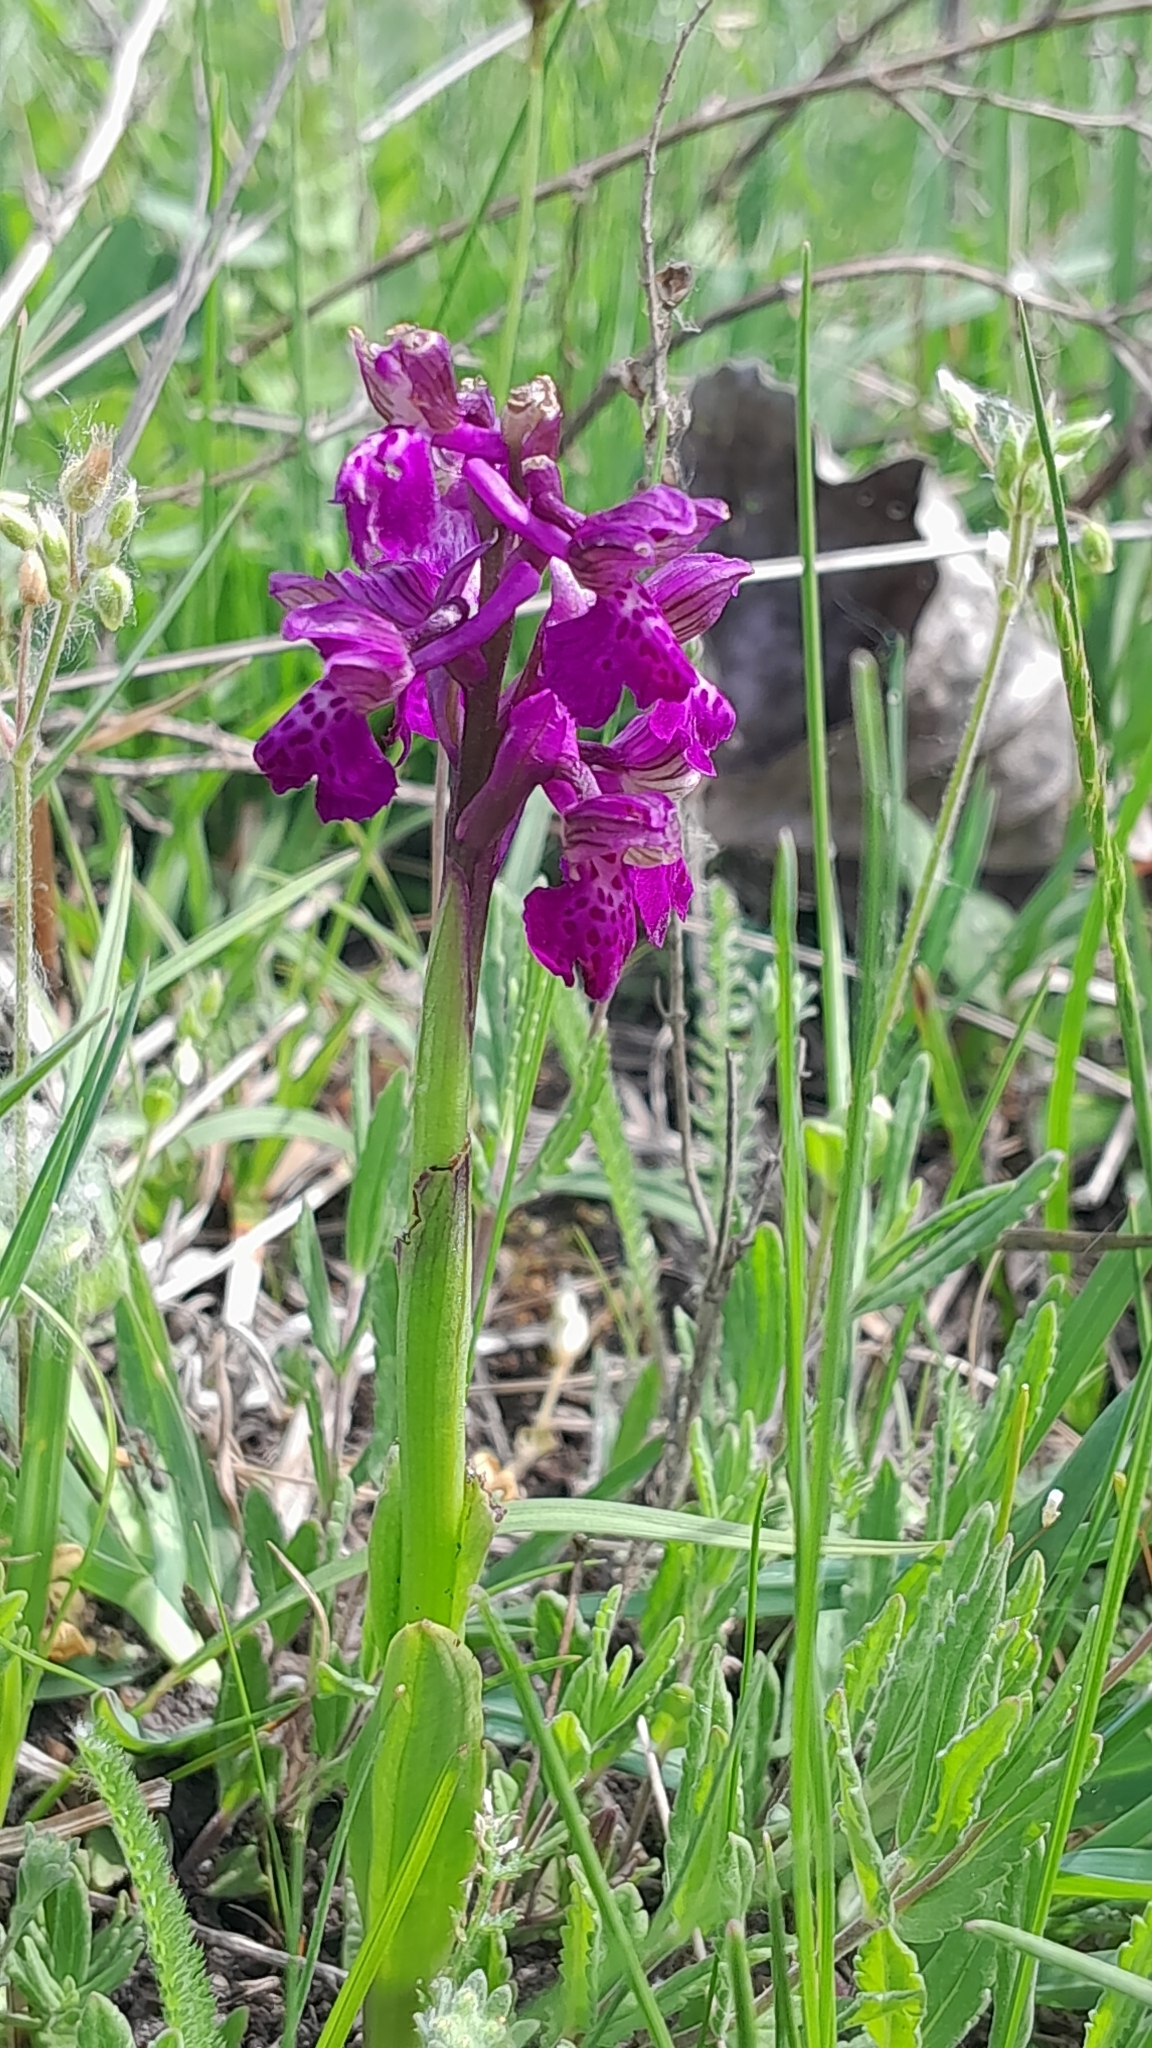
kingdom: Plantae
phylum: Tracheophyta
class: Liliopsida
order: Asparagales
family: Orchidaceae
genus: Anacamptis
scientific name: Anacamptis morio
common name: Green-winged orchid
